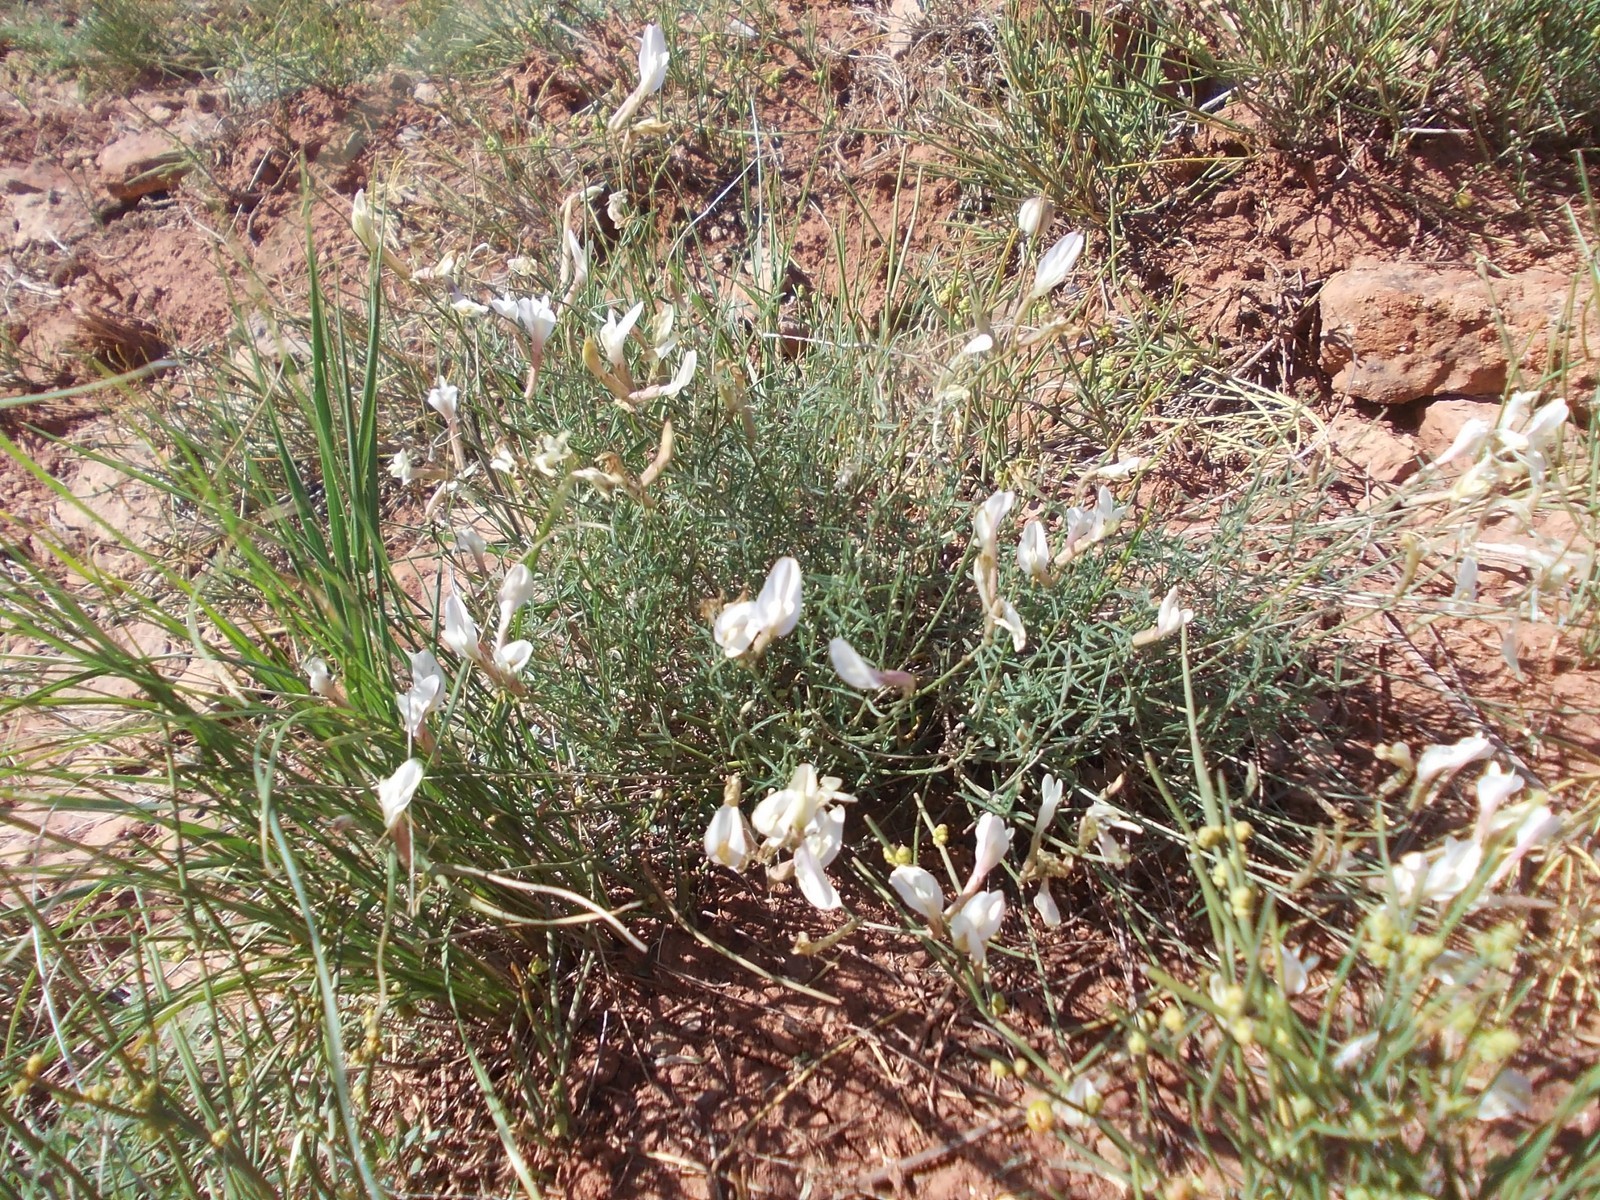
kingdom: Plantae
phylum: Tracheophyta
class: Magnoliopsida
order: Fabales
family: Fabaceae
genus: Astragalus
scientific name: Astragalus ucrainicus
